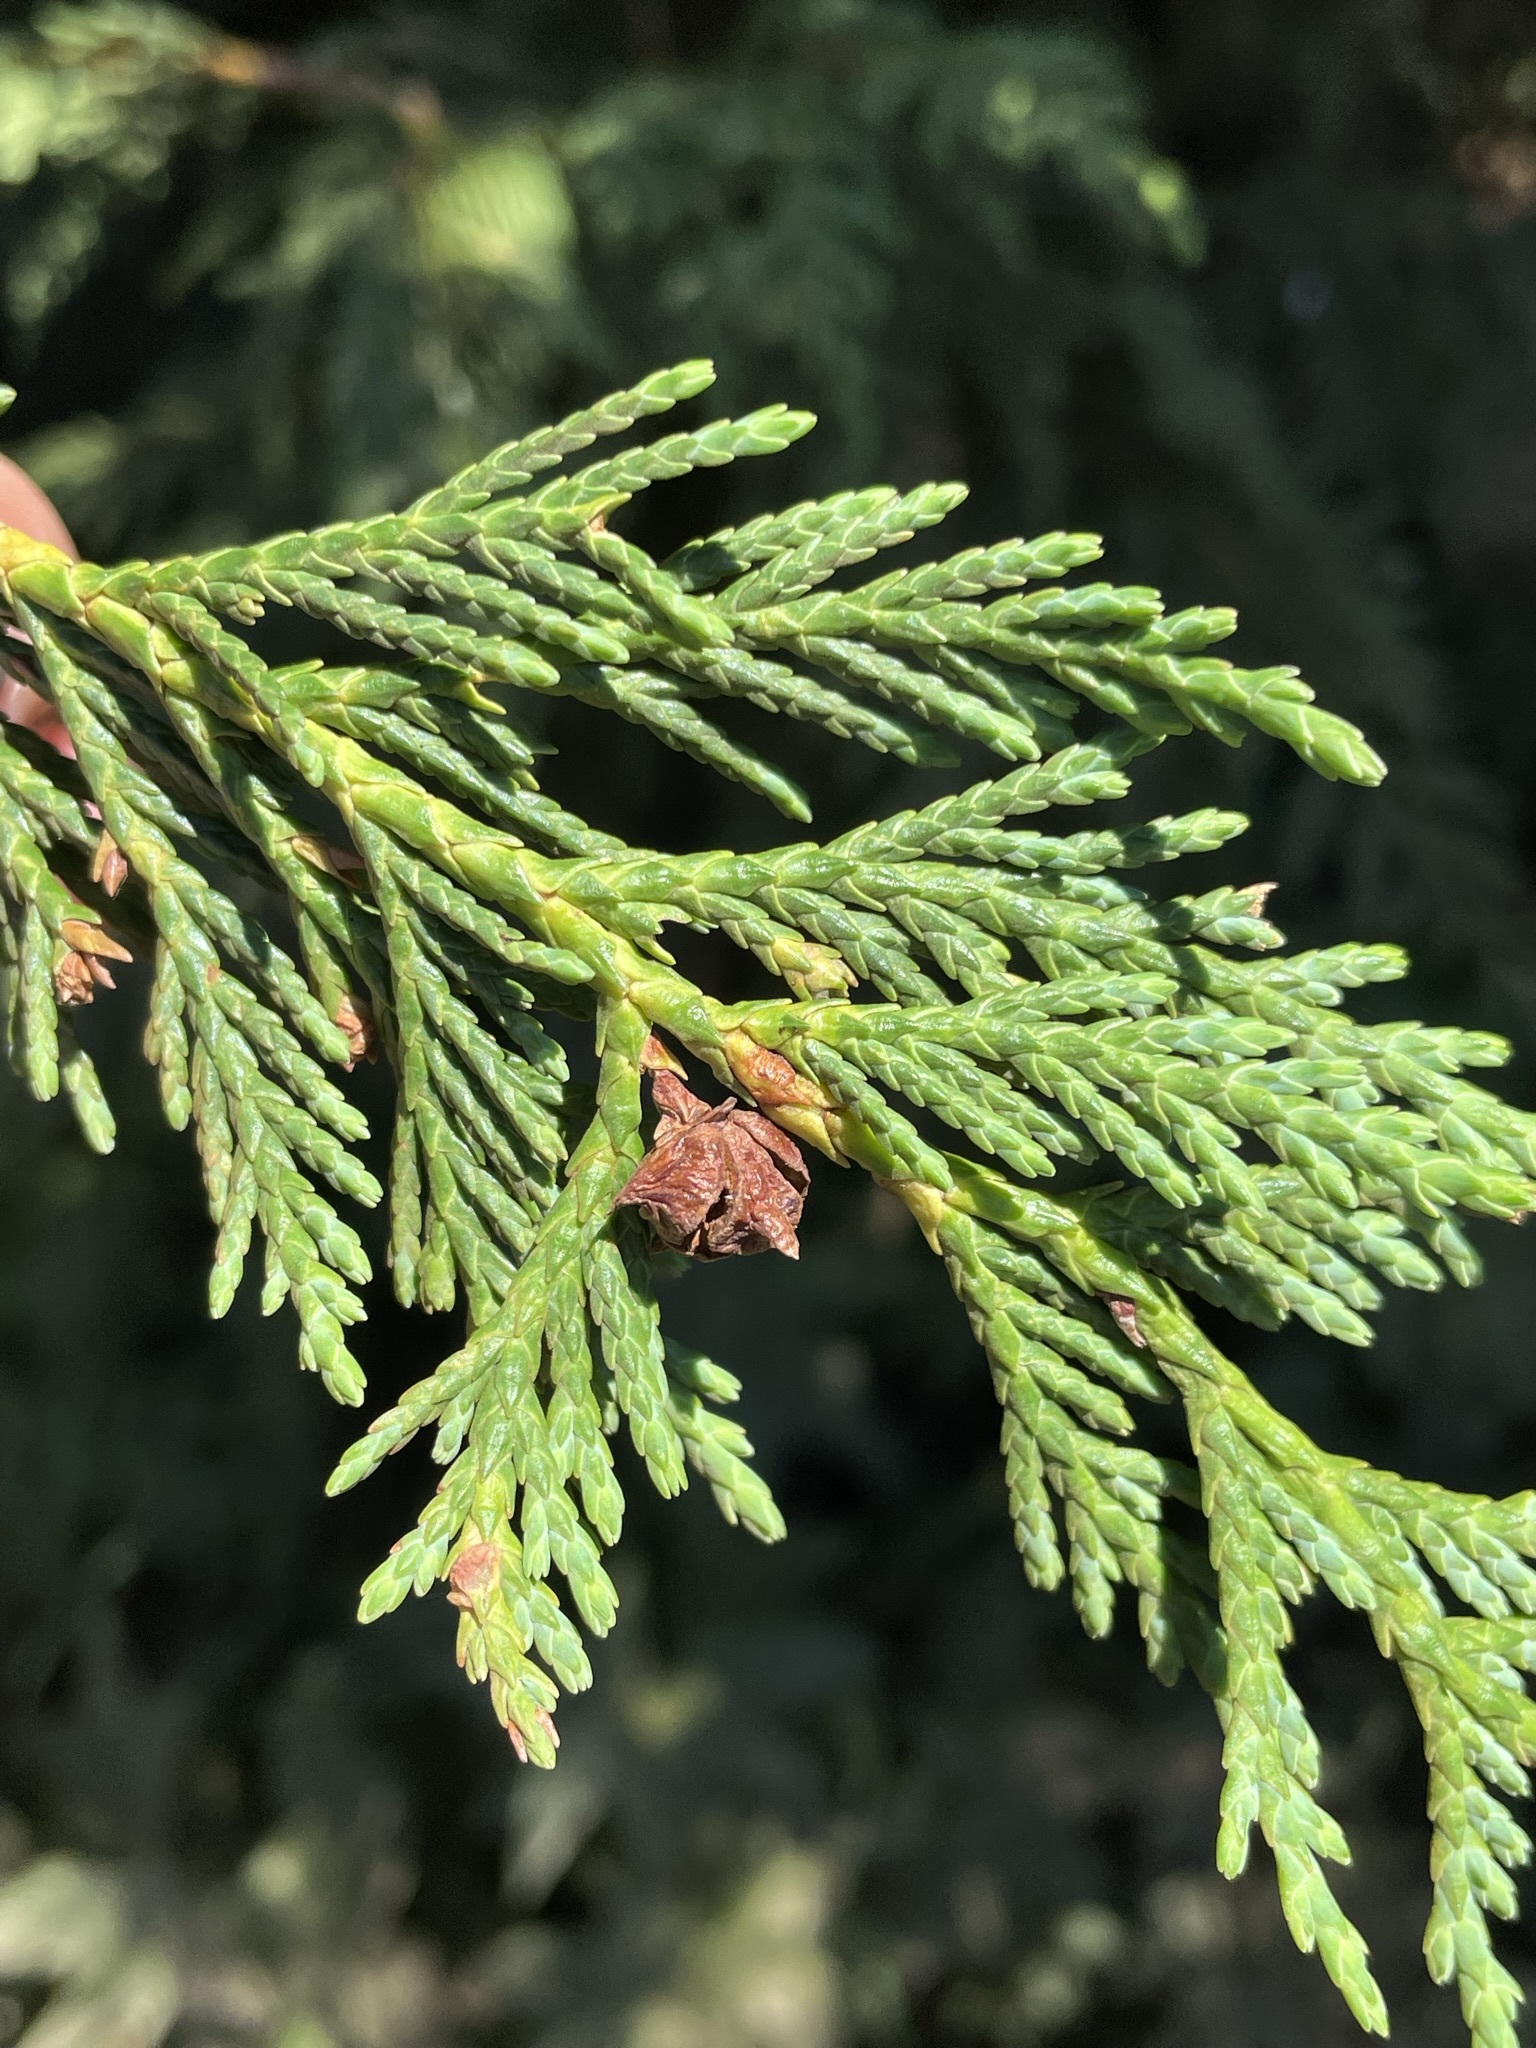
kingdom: Plantae
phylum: Tracheophyta
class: Pinopsida
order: Pinales
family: Cupressaceae
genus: Xanthocyparis
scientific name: Xanthocyparis nootkatensis
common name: Nootka cypress
